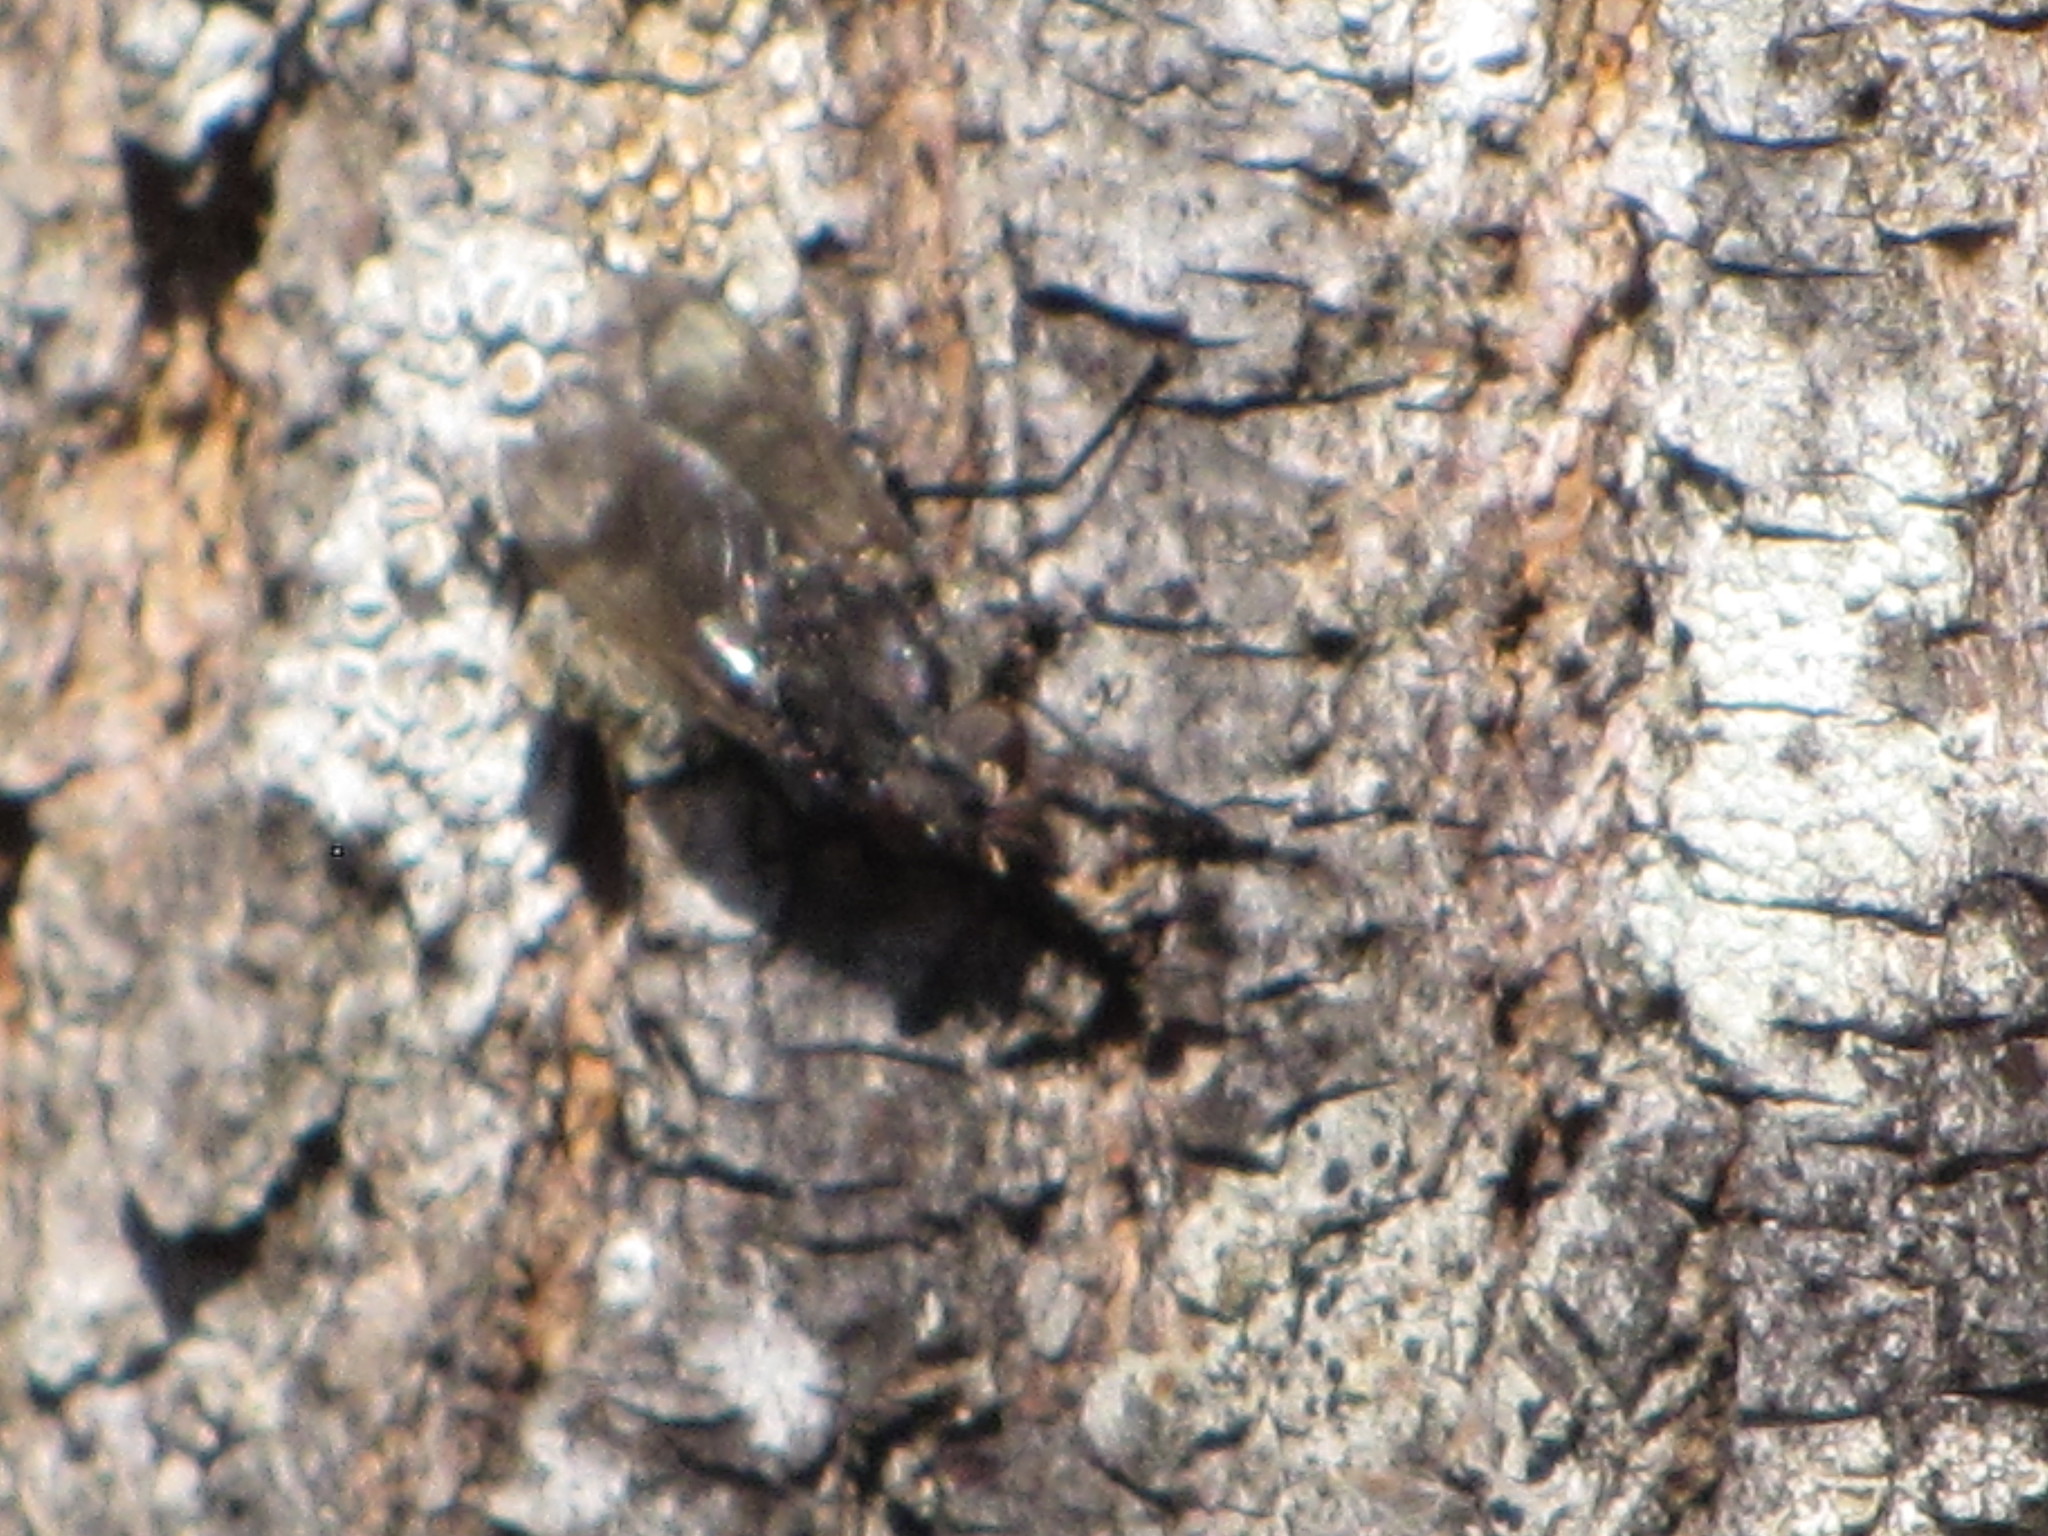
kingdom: Animalia
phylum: Arthropoda
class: Insecta
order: Diptera
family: Polleniidae
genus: Pollenia
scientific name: Pollenia vagabunda
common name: Vagabund cluster fly
